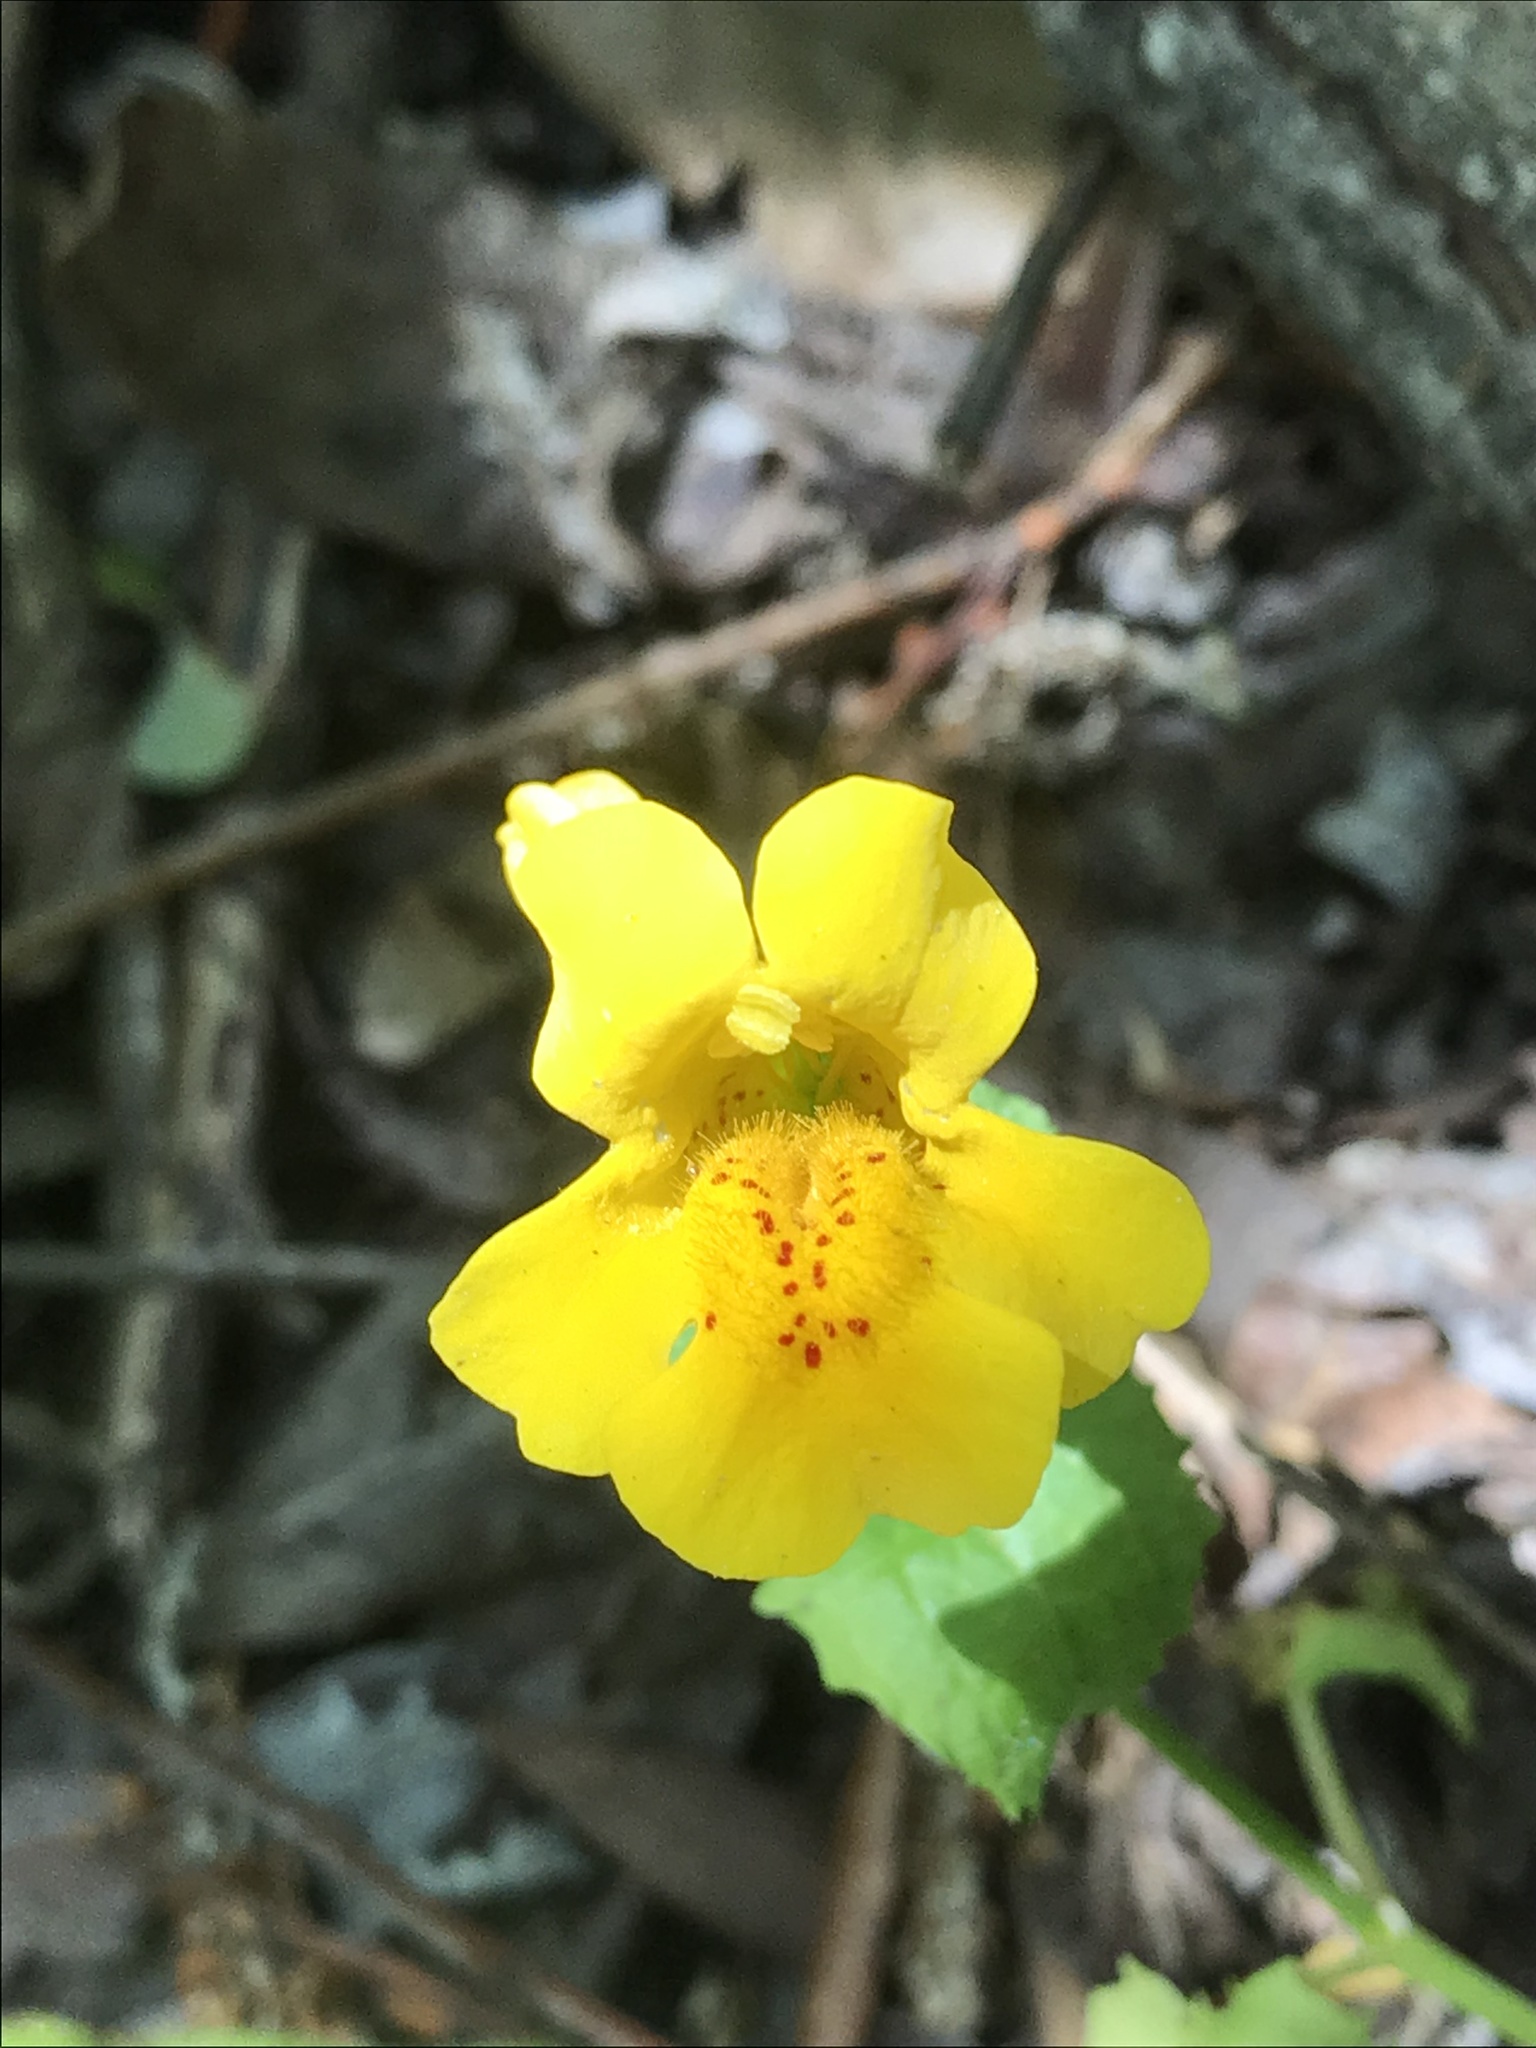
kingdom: Plantae
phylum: Tracheophyta
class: Magnoliopsida
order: Lamiales
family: Phrymaceae
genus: Erythranthe
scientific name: Erythranthe guttata
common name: Monkeyflower
